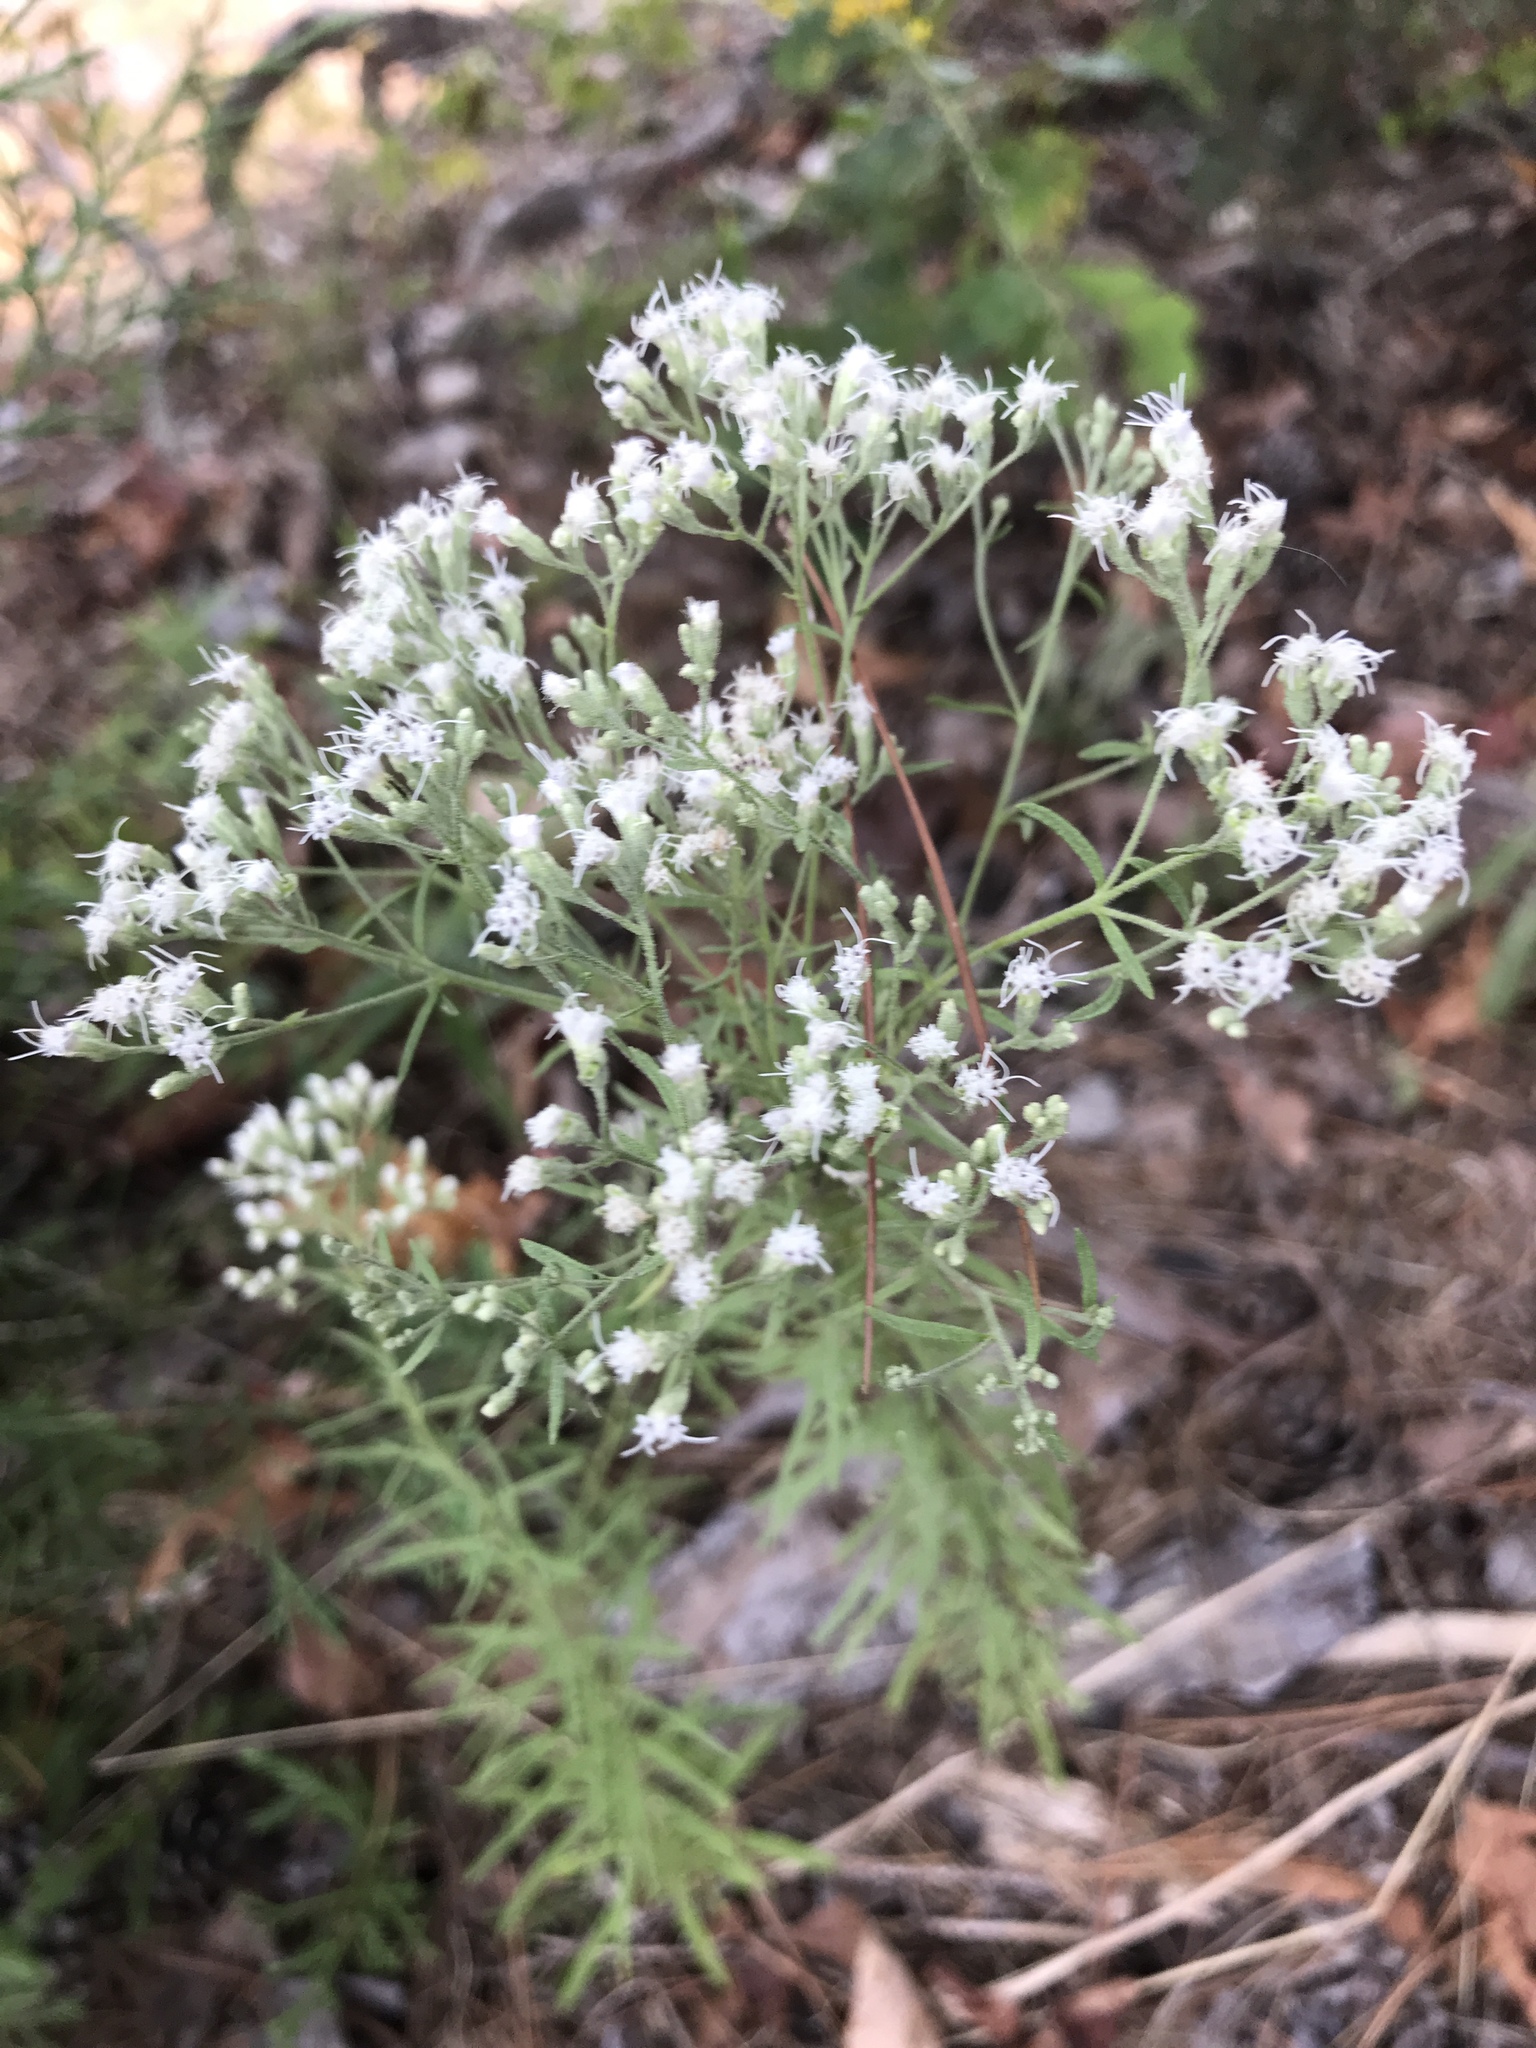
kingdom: Plantae
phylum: Tracheophyta
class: Magnoliopsida
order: Asterales
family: Asteraceae
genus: Eupatorium
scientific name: Eupatorium hyssopifolium
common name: Hyssop-leaf thoroughwort
